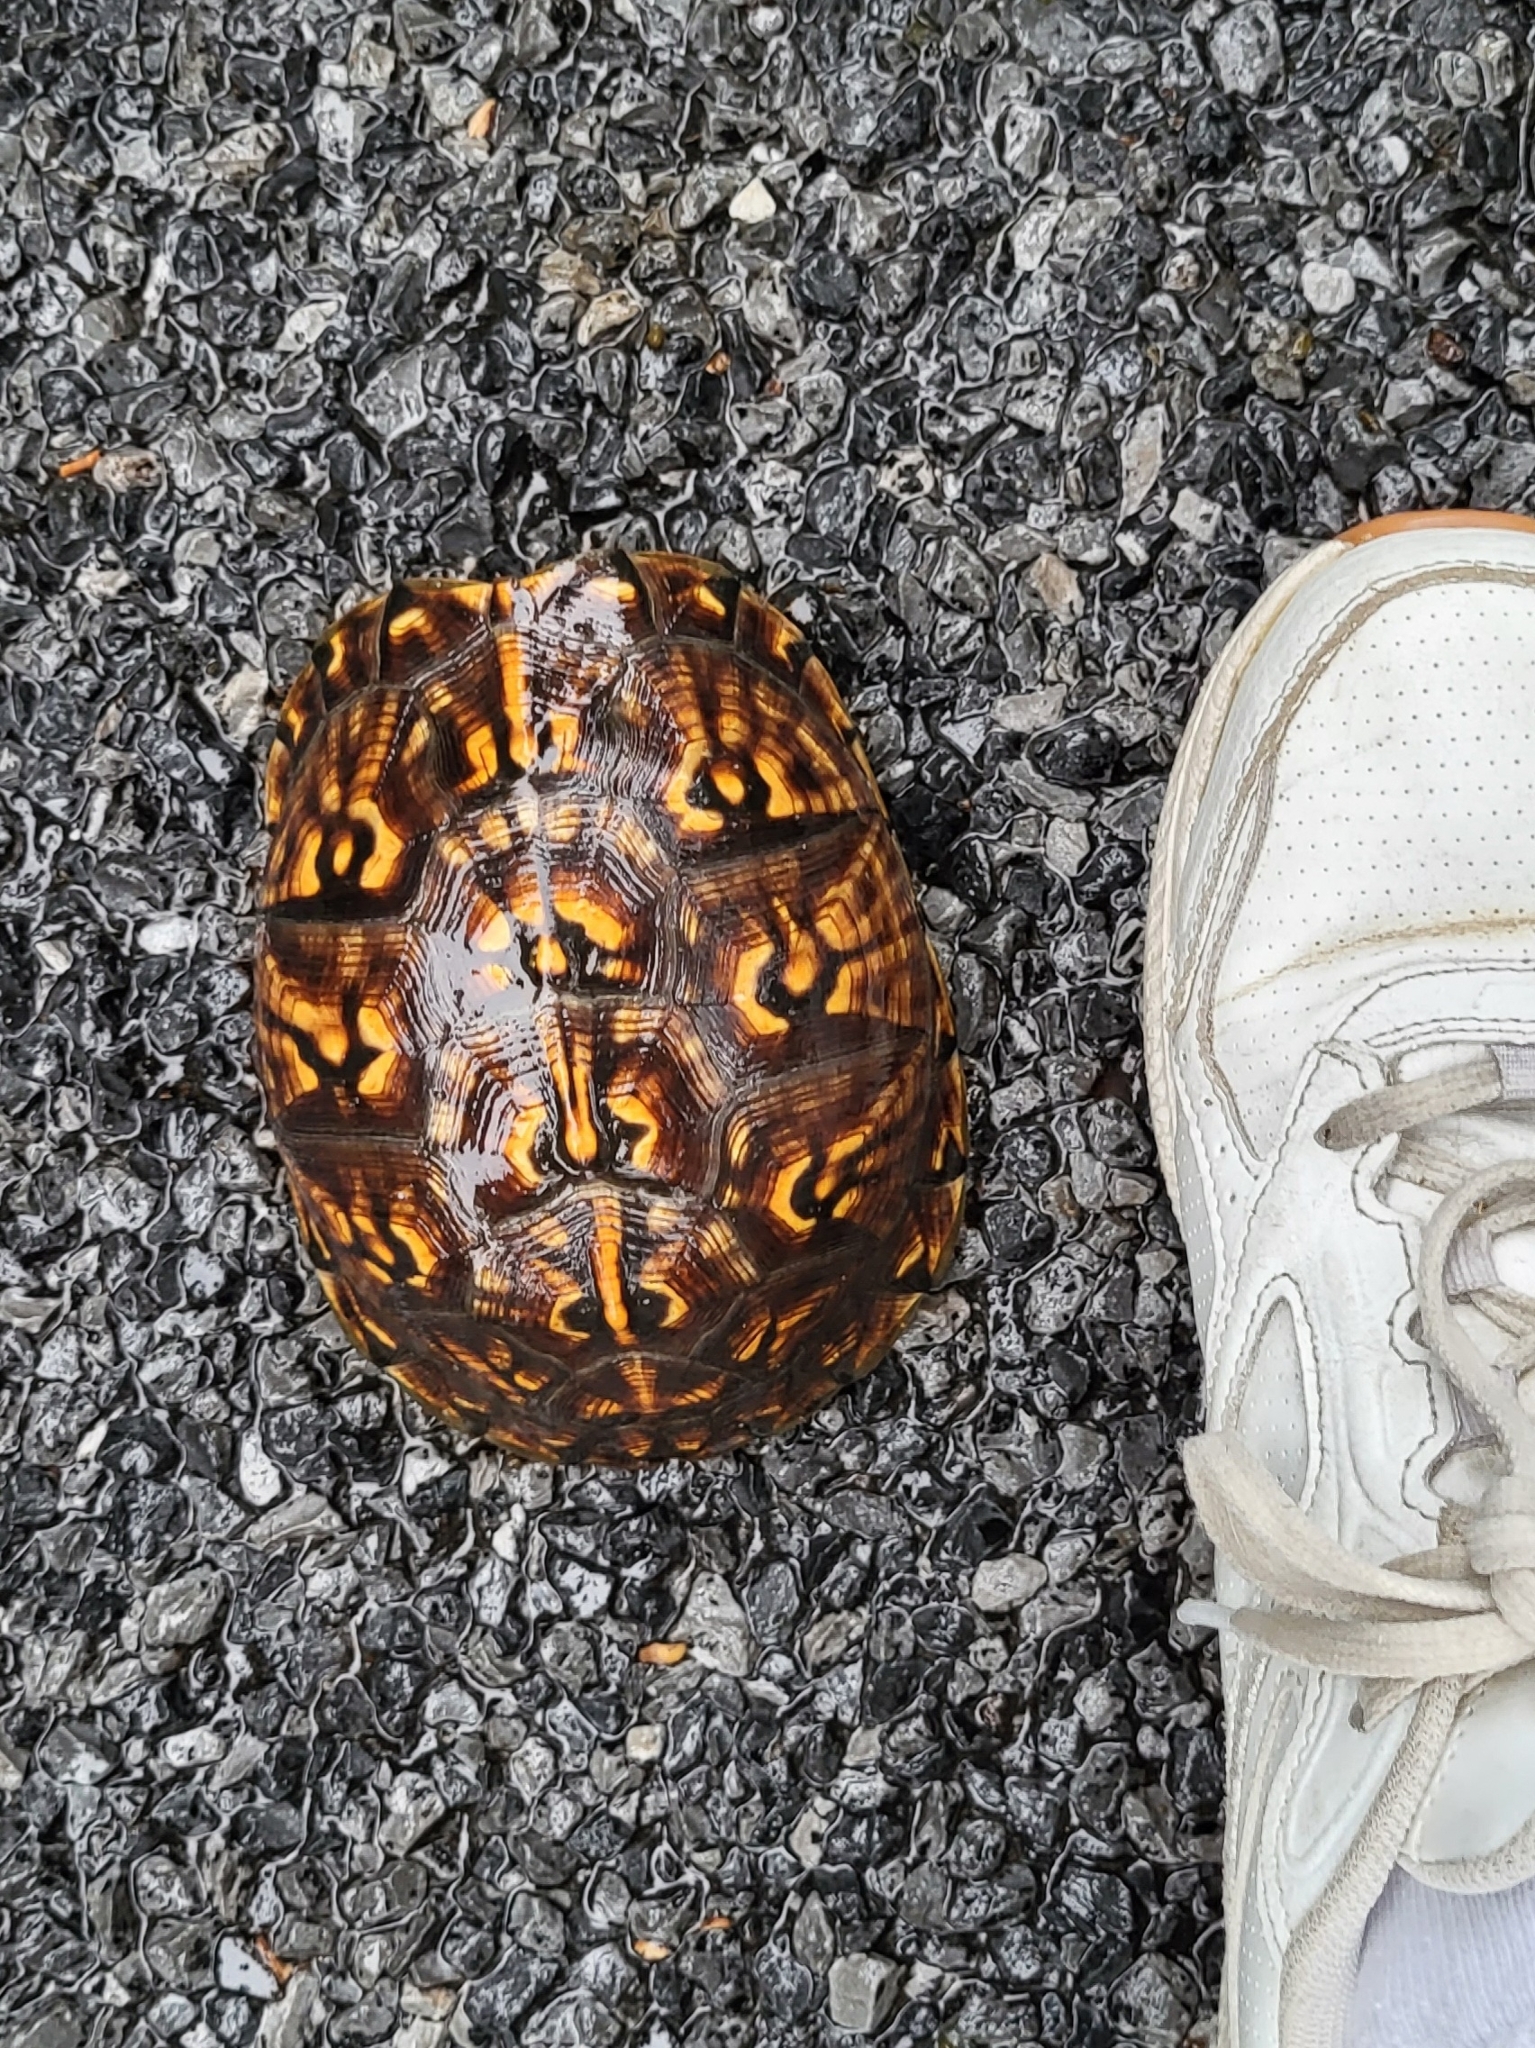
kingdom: Animalia
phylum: Chordata
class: Testudines
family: Emydidae
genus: Terrapene
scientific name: Terrapene carolina
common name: Common box turtle
